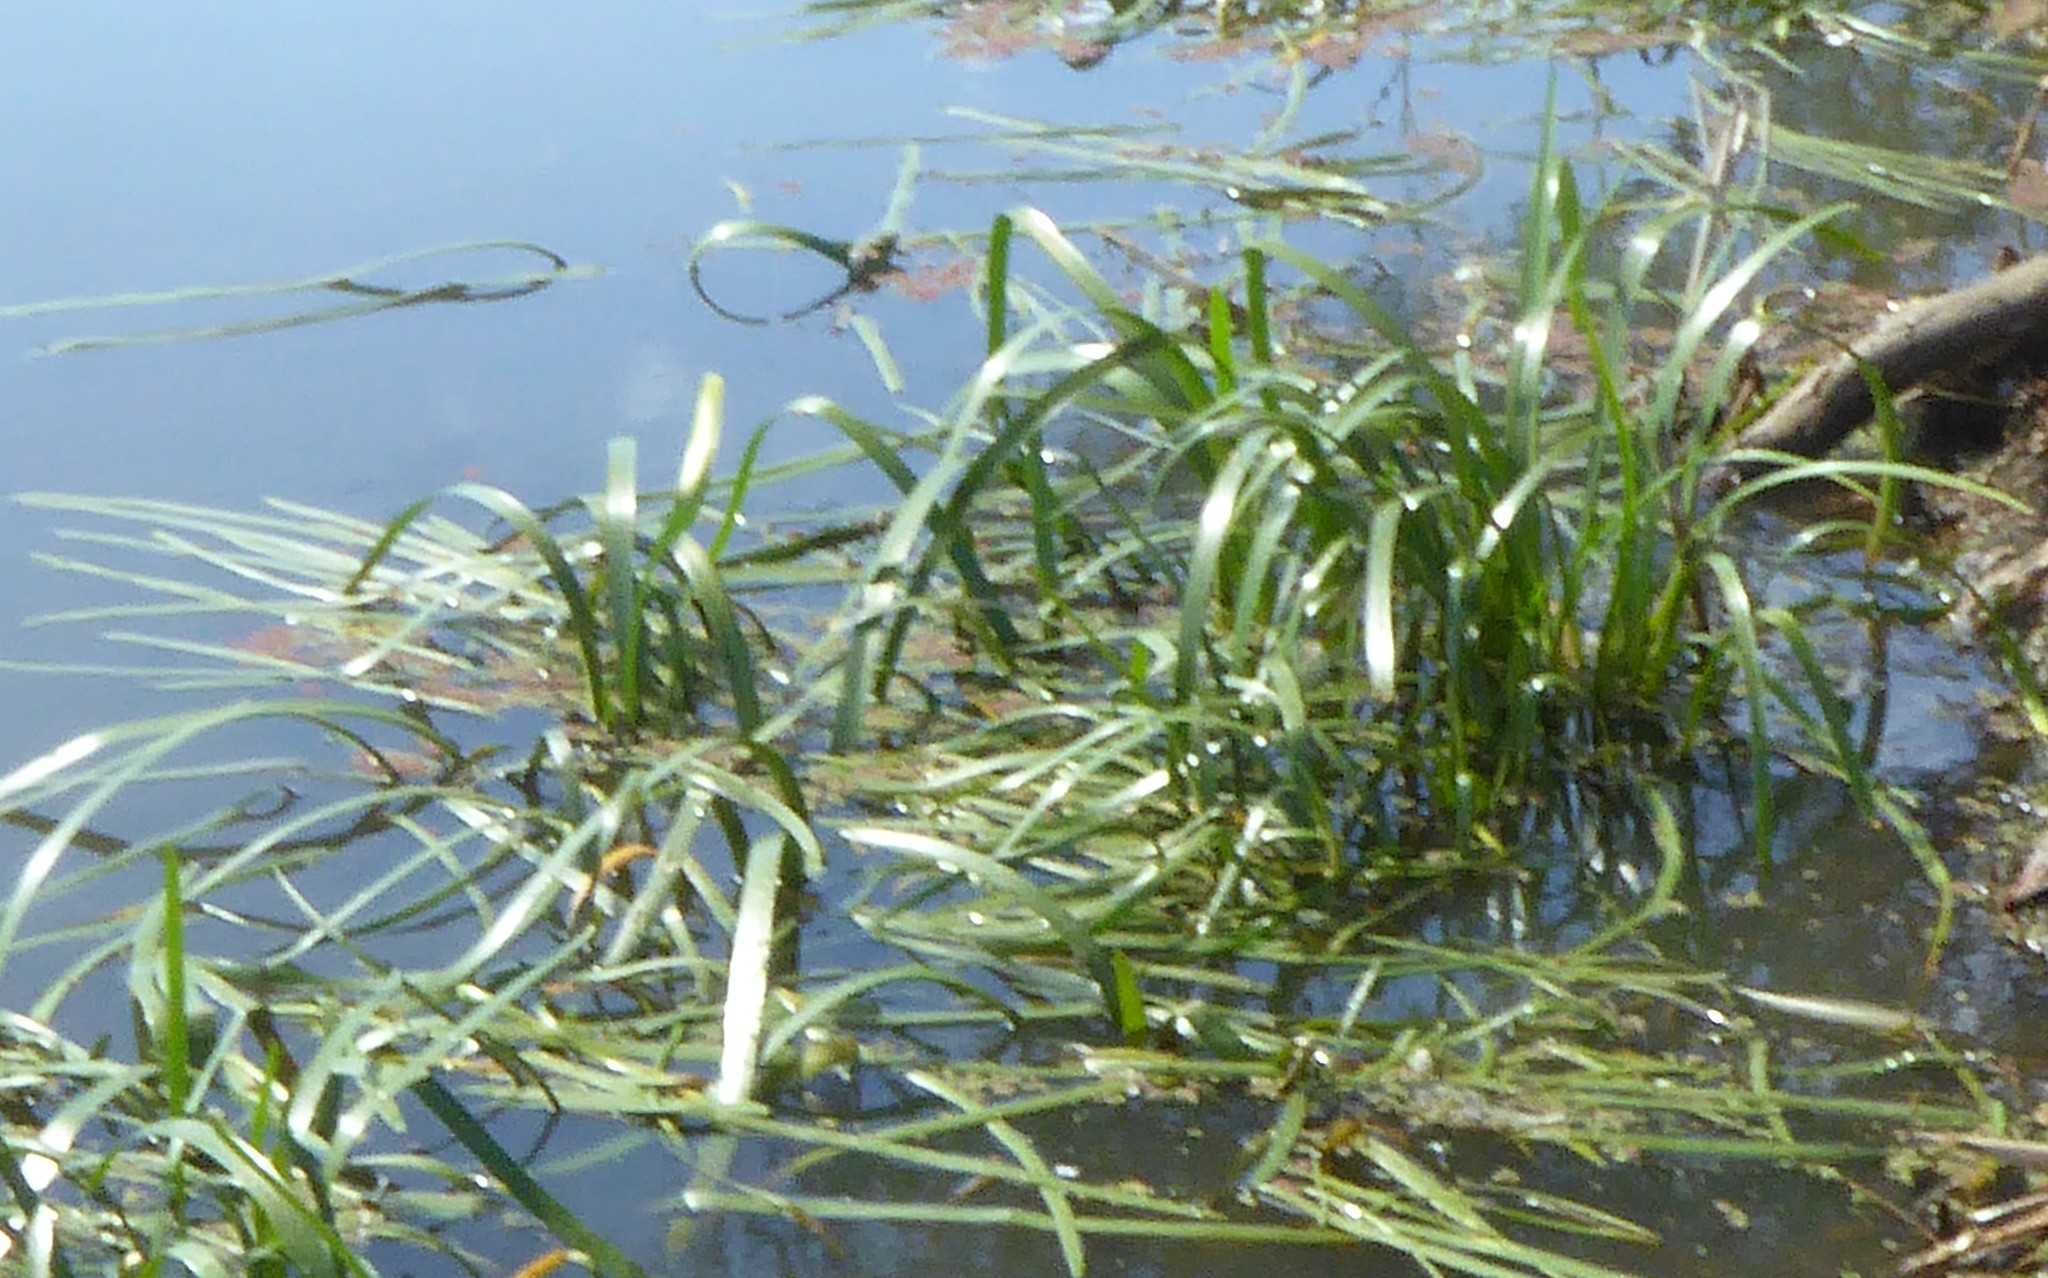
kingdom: Plantae
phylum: Tracheophyta
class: Liliopsida
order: Alismatales
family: Juncaginaceae
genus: Cycnogeton
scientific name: Cycnogeton procerum
